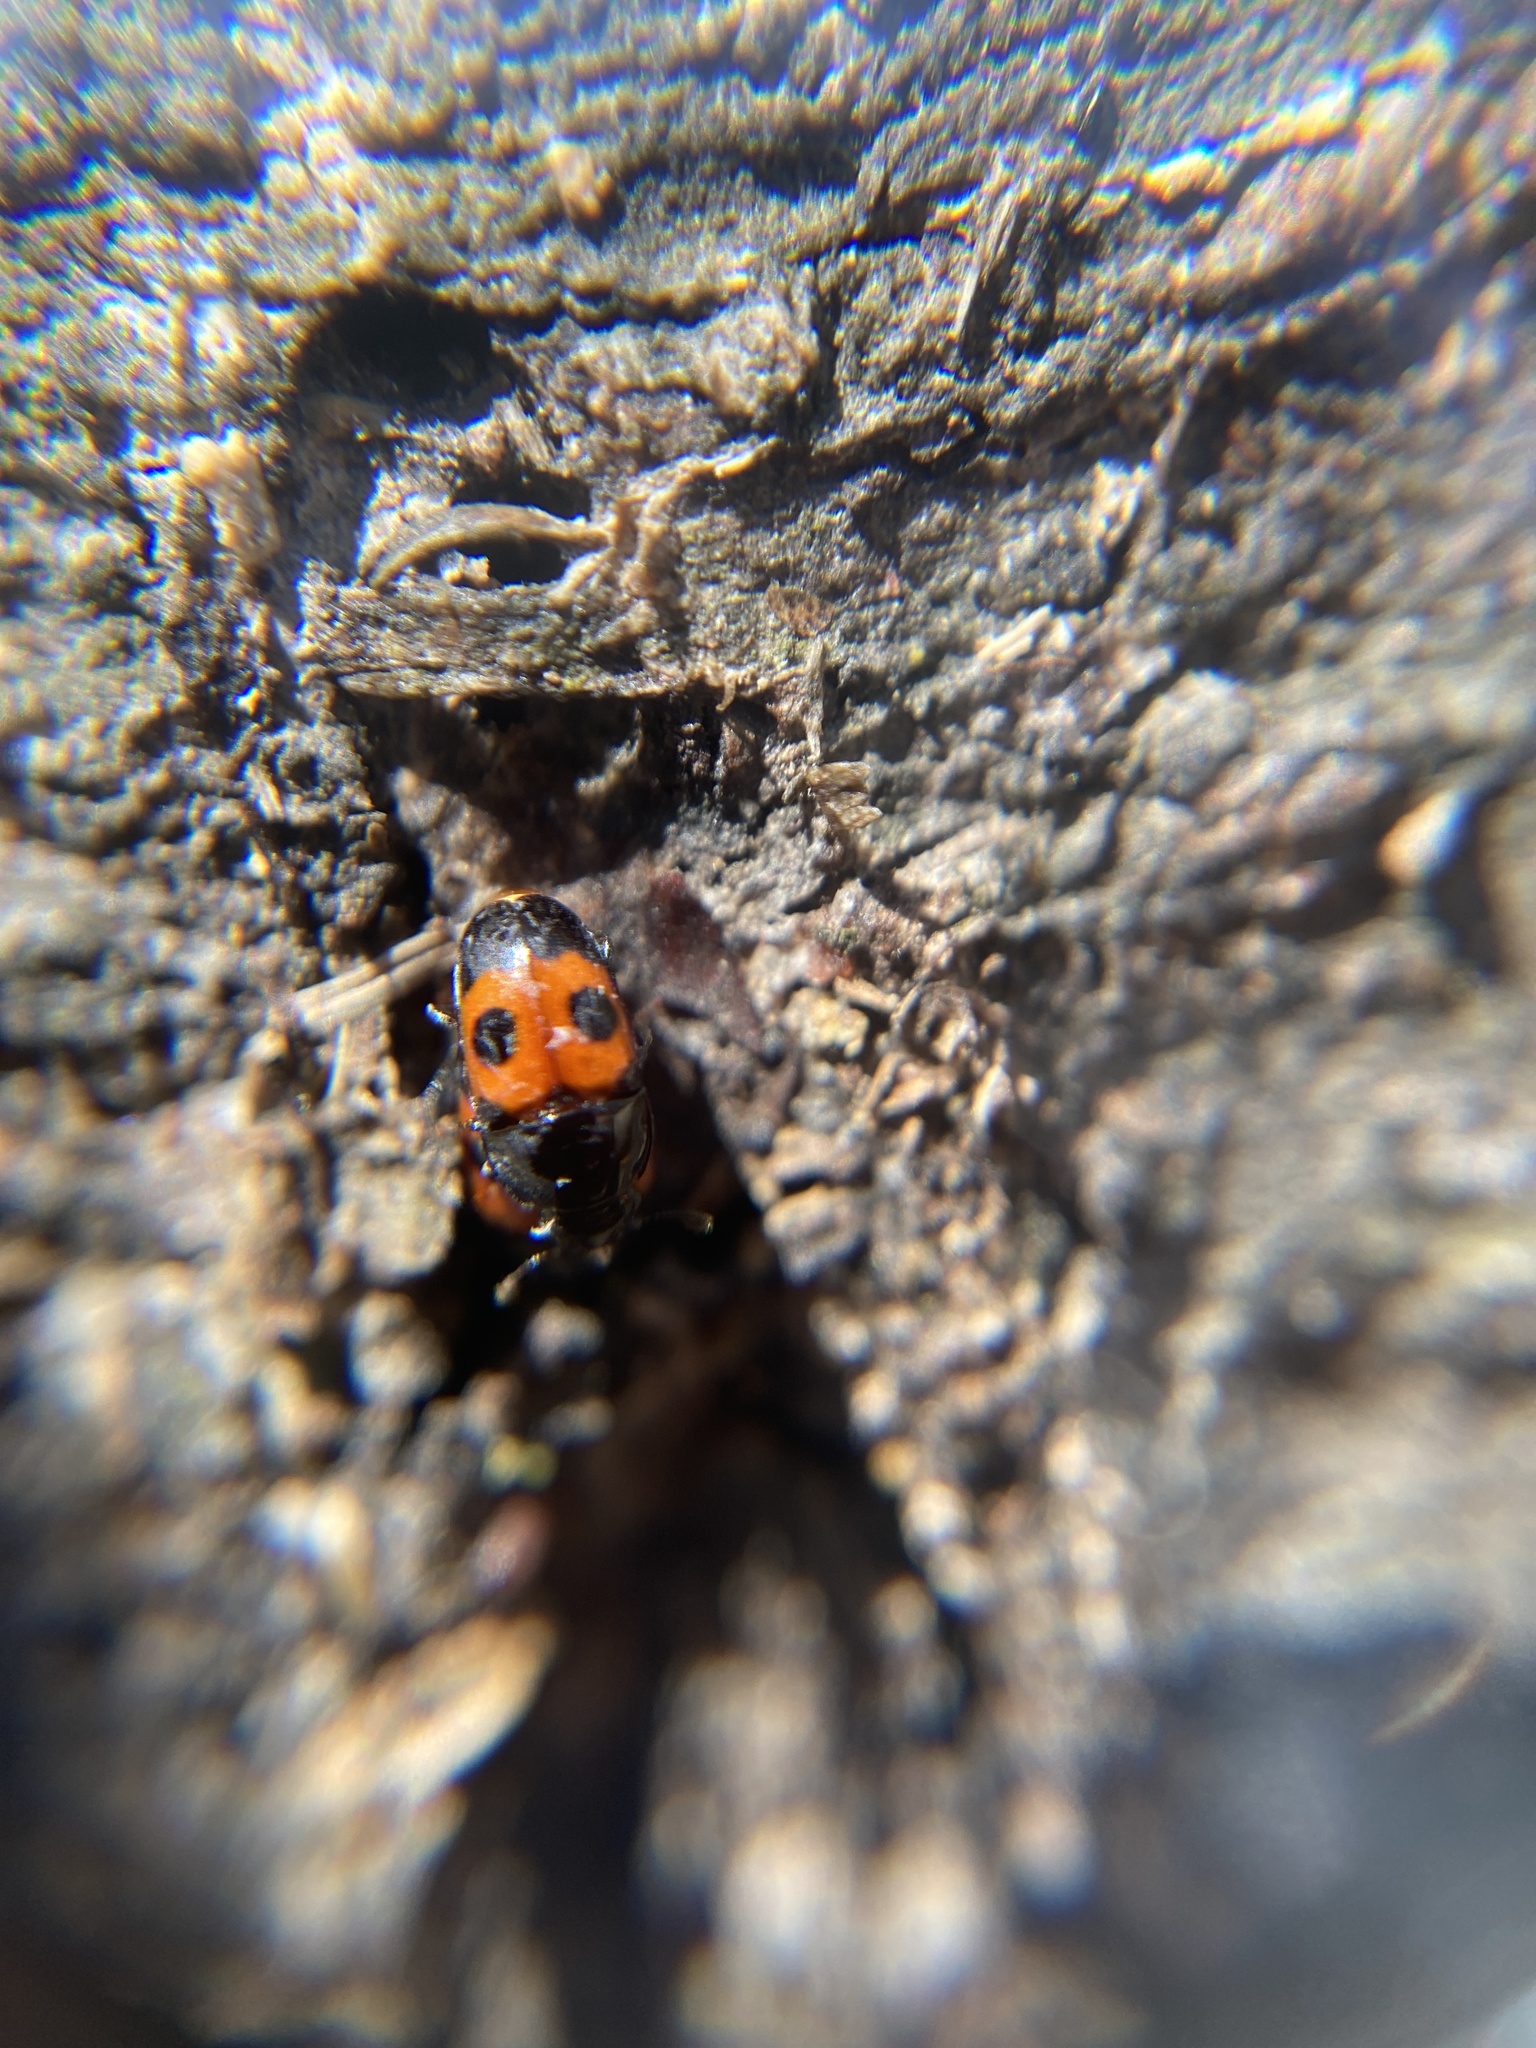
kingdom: Animalia
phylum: Arthropoda
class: Insecta
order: Coleoptera
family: Nitidulidae
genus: Glischrochilus
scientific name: Glischrochilus sanguinolentus
